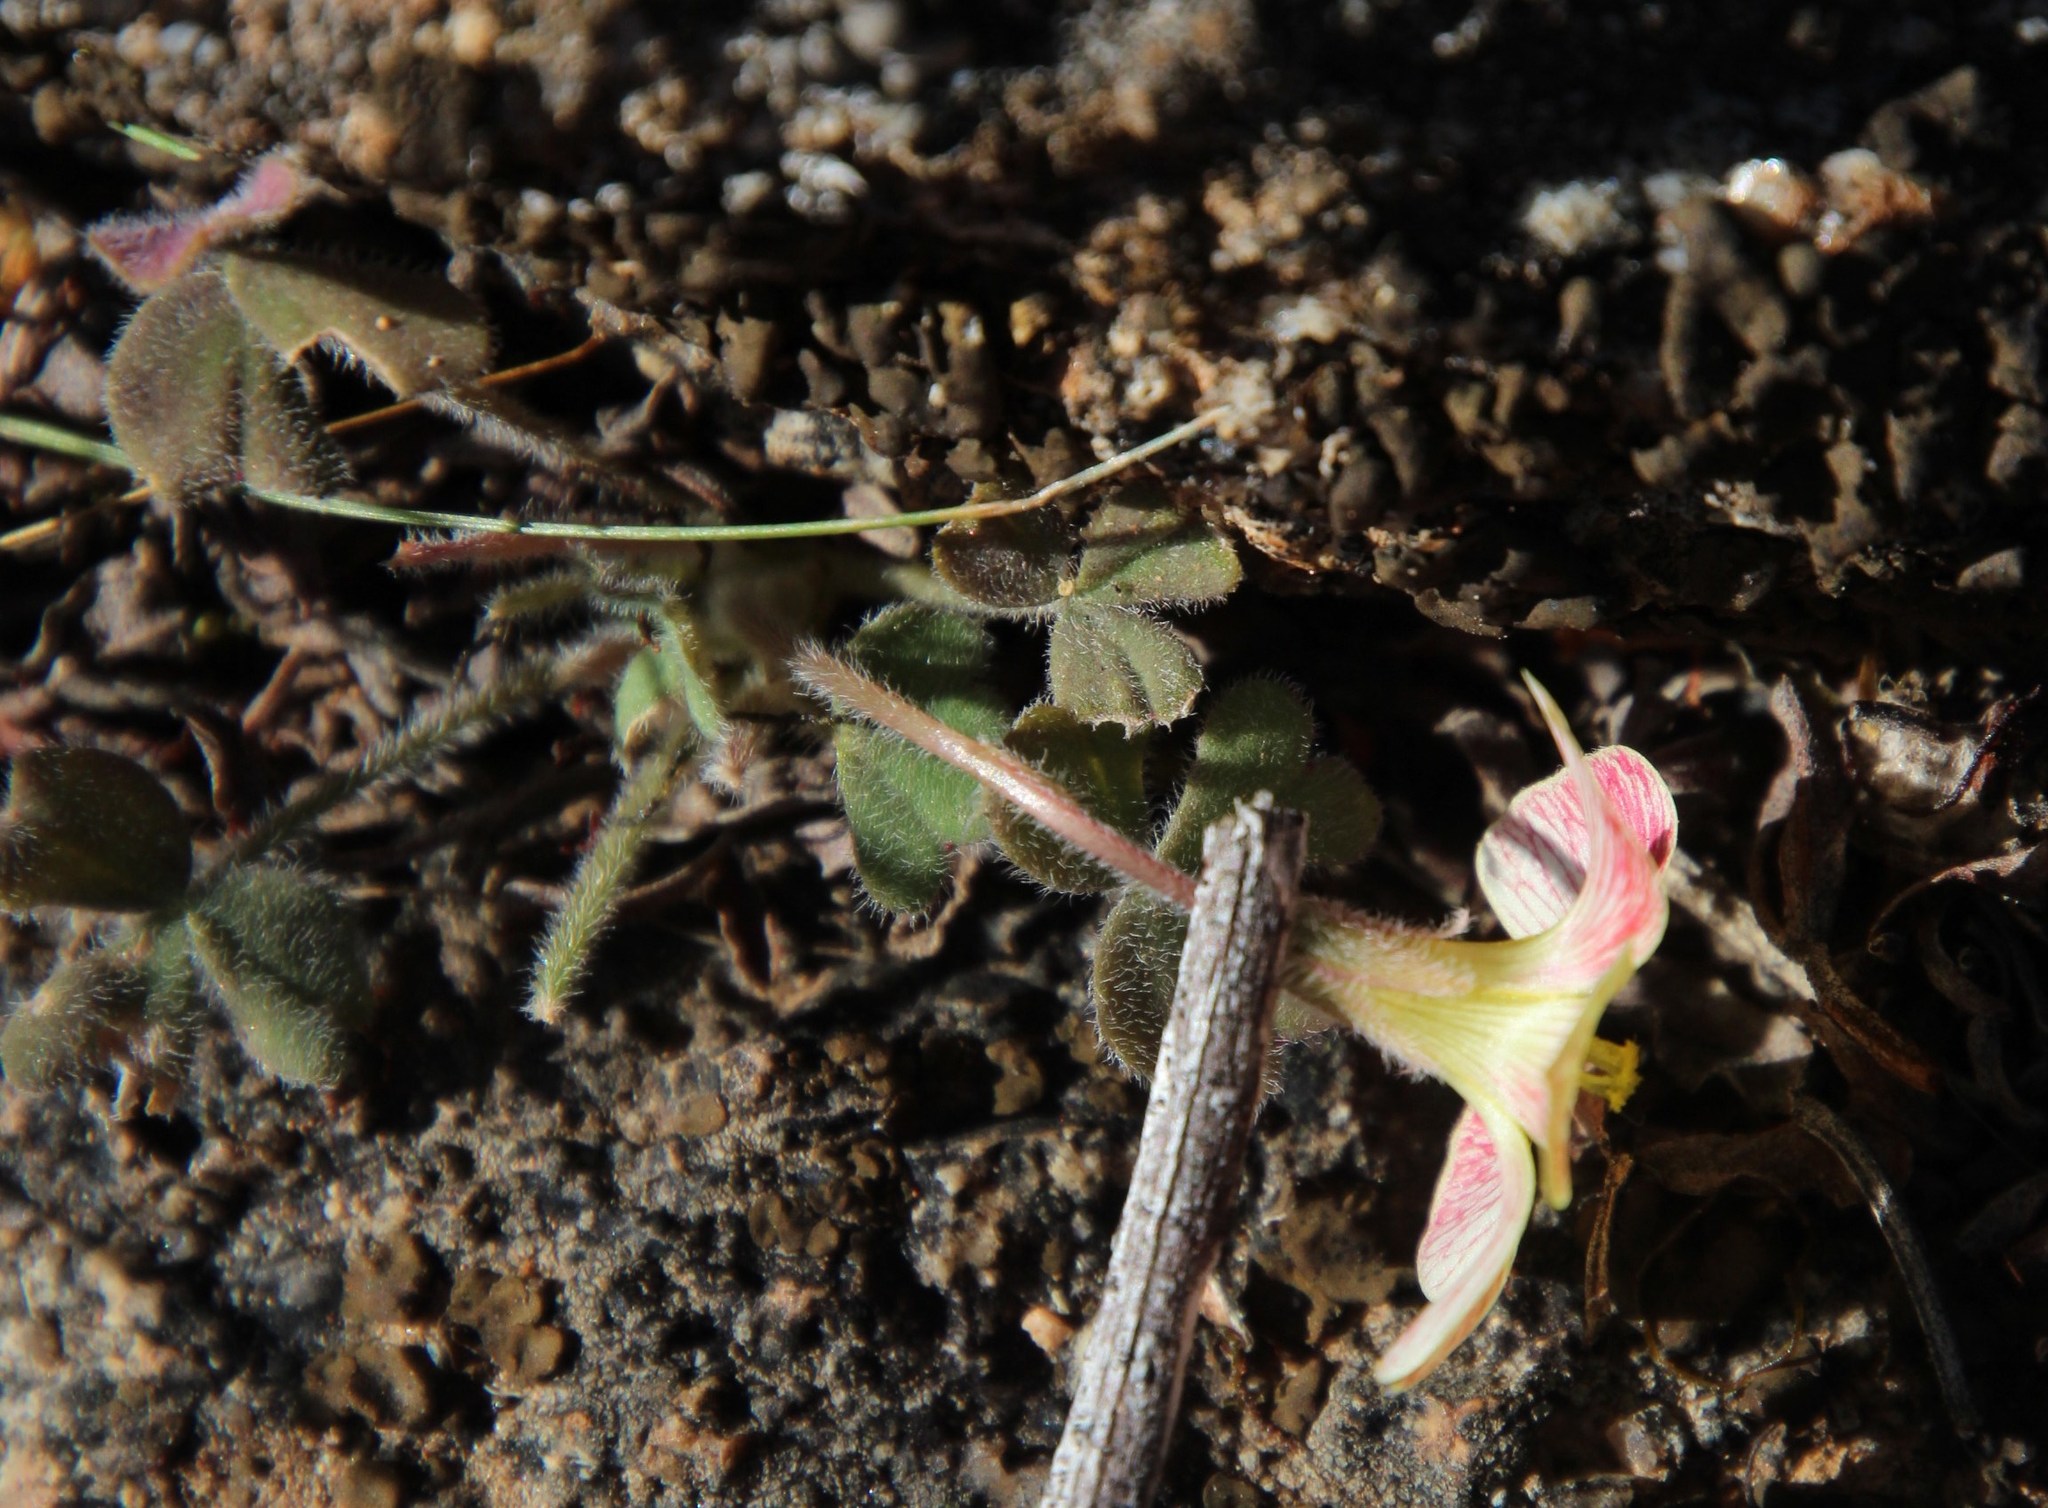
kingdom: Plantae
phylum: Tracheophyta
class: Magnoliopsida
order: Oxalidales
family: Oxalidaceae
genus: Oxalis
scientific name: Oxalis obtusa
